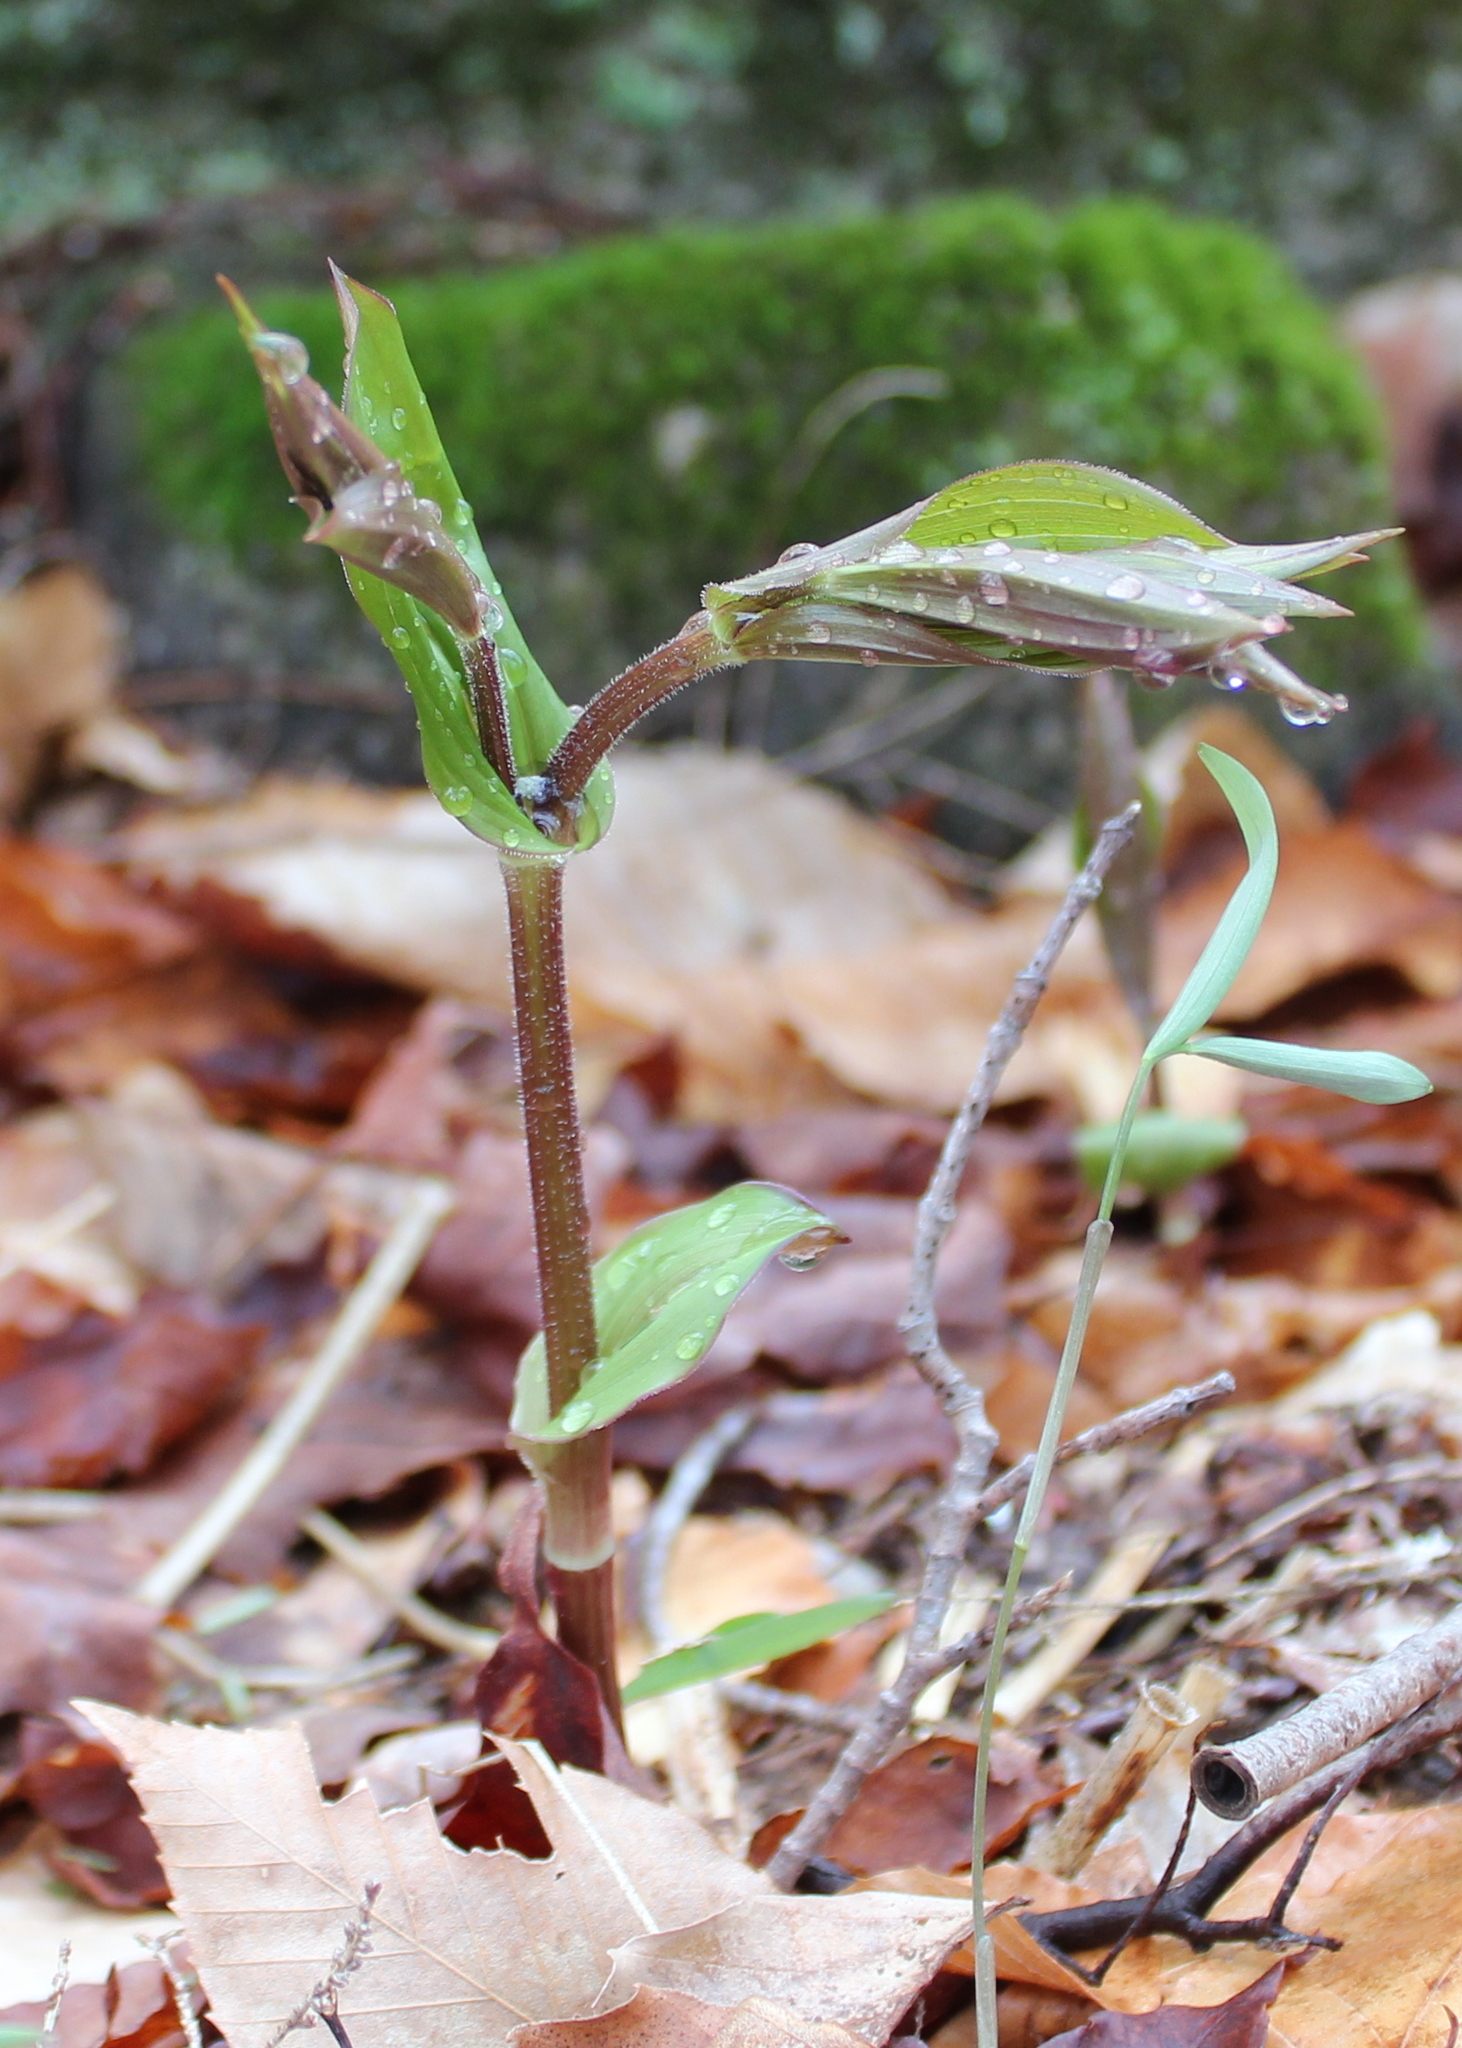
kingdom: Plantae
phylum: Tracheophyta
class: Liliopsida
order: Liliales
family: Liliaceae
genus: Streptopus
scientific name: Streptopus lanceolatus
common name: Rose mandarin
